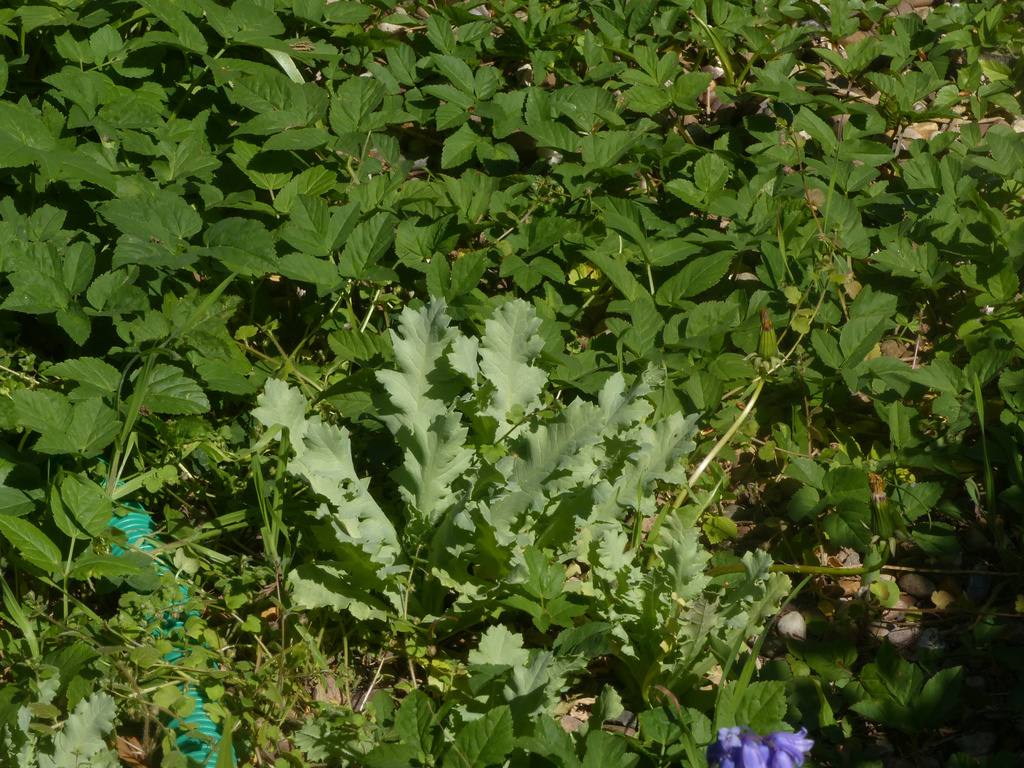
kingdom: Plantae
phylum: Tracheophyta
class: Magnoliopsida
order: Ranunculales
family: Papaveraceae
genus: Papaver
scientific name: Papaver somniferum
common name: Opium poppy
